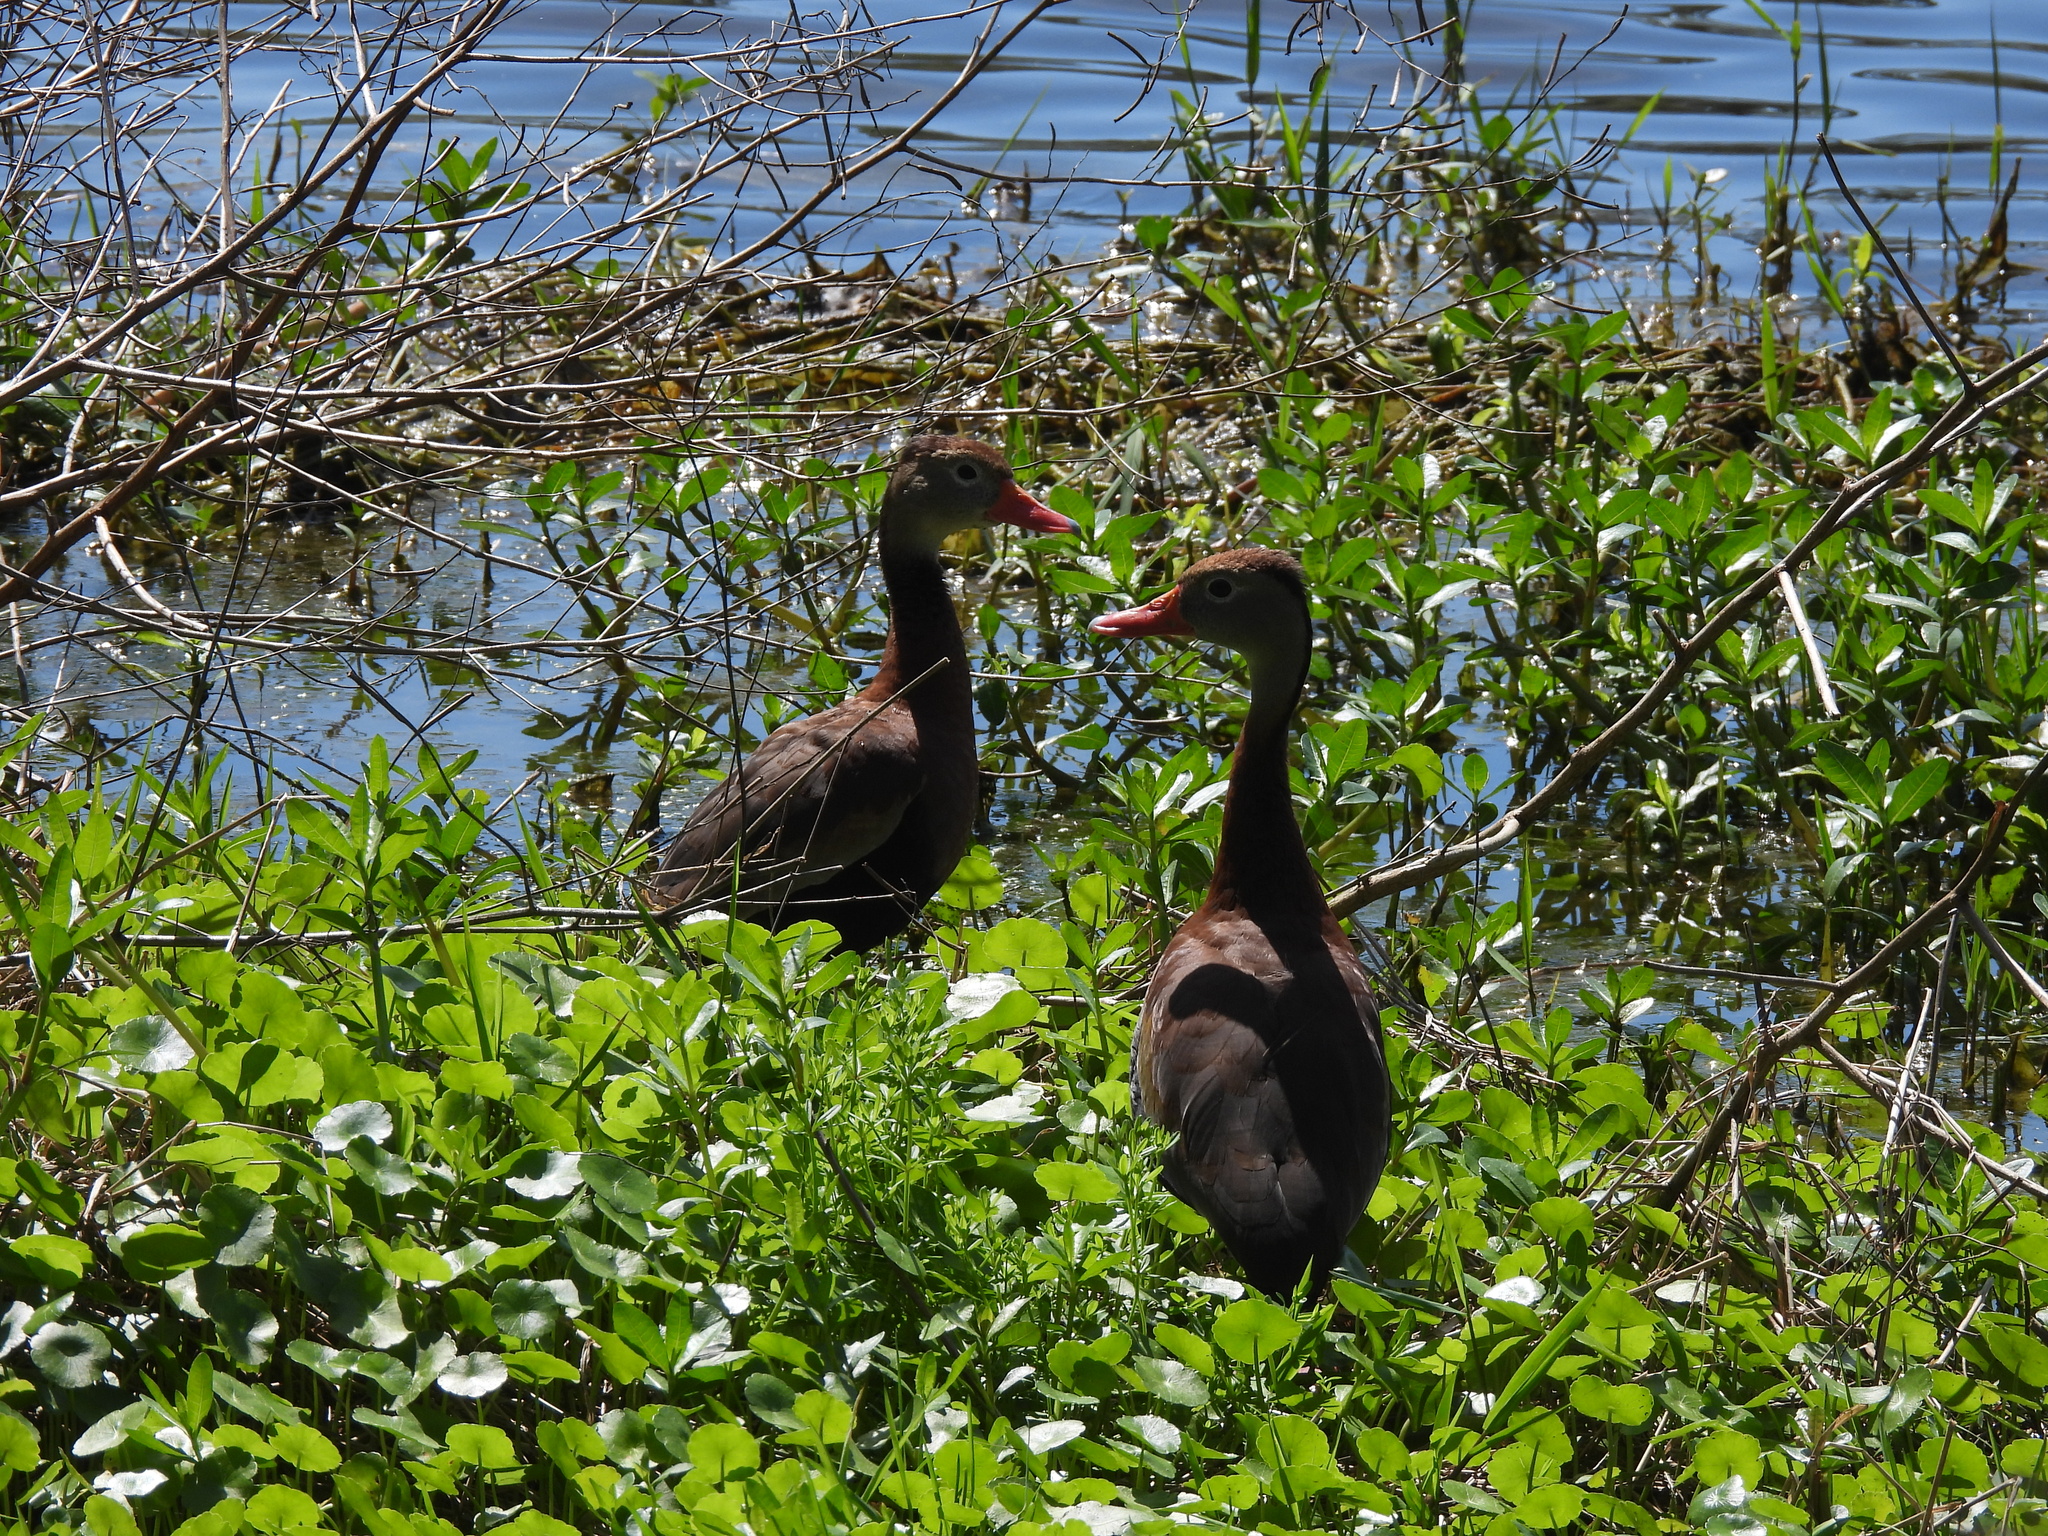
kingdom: Animalia
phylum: Chordata
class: Aves
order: Anseriformes
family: Anatidae
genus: Dendrocygna
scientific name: Dendrocygna autumnalis
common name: Black-bellied whistling duck
